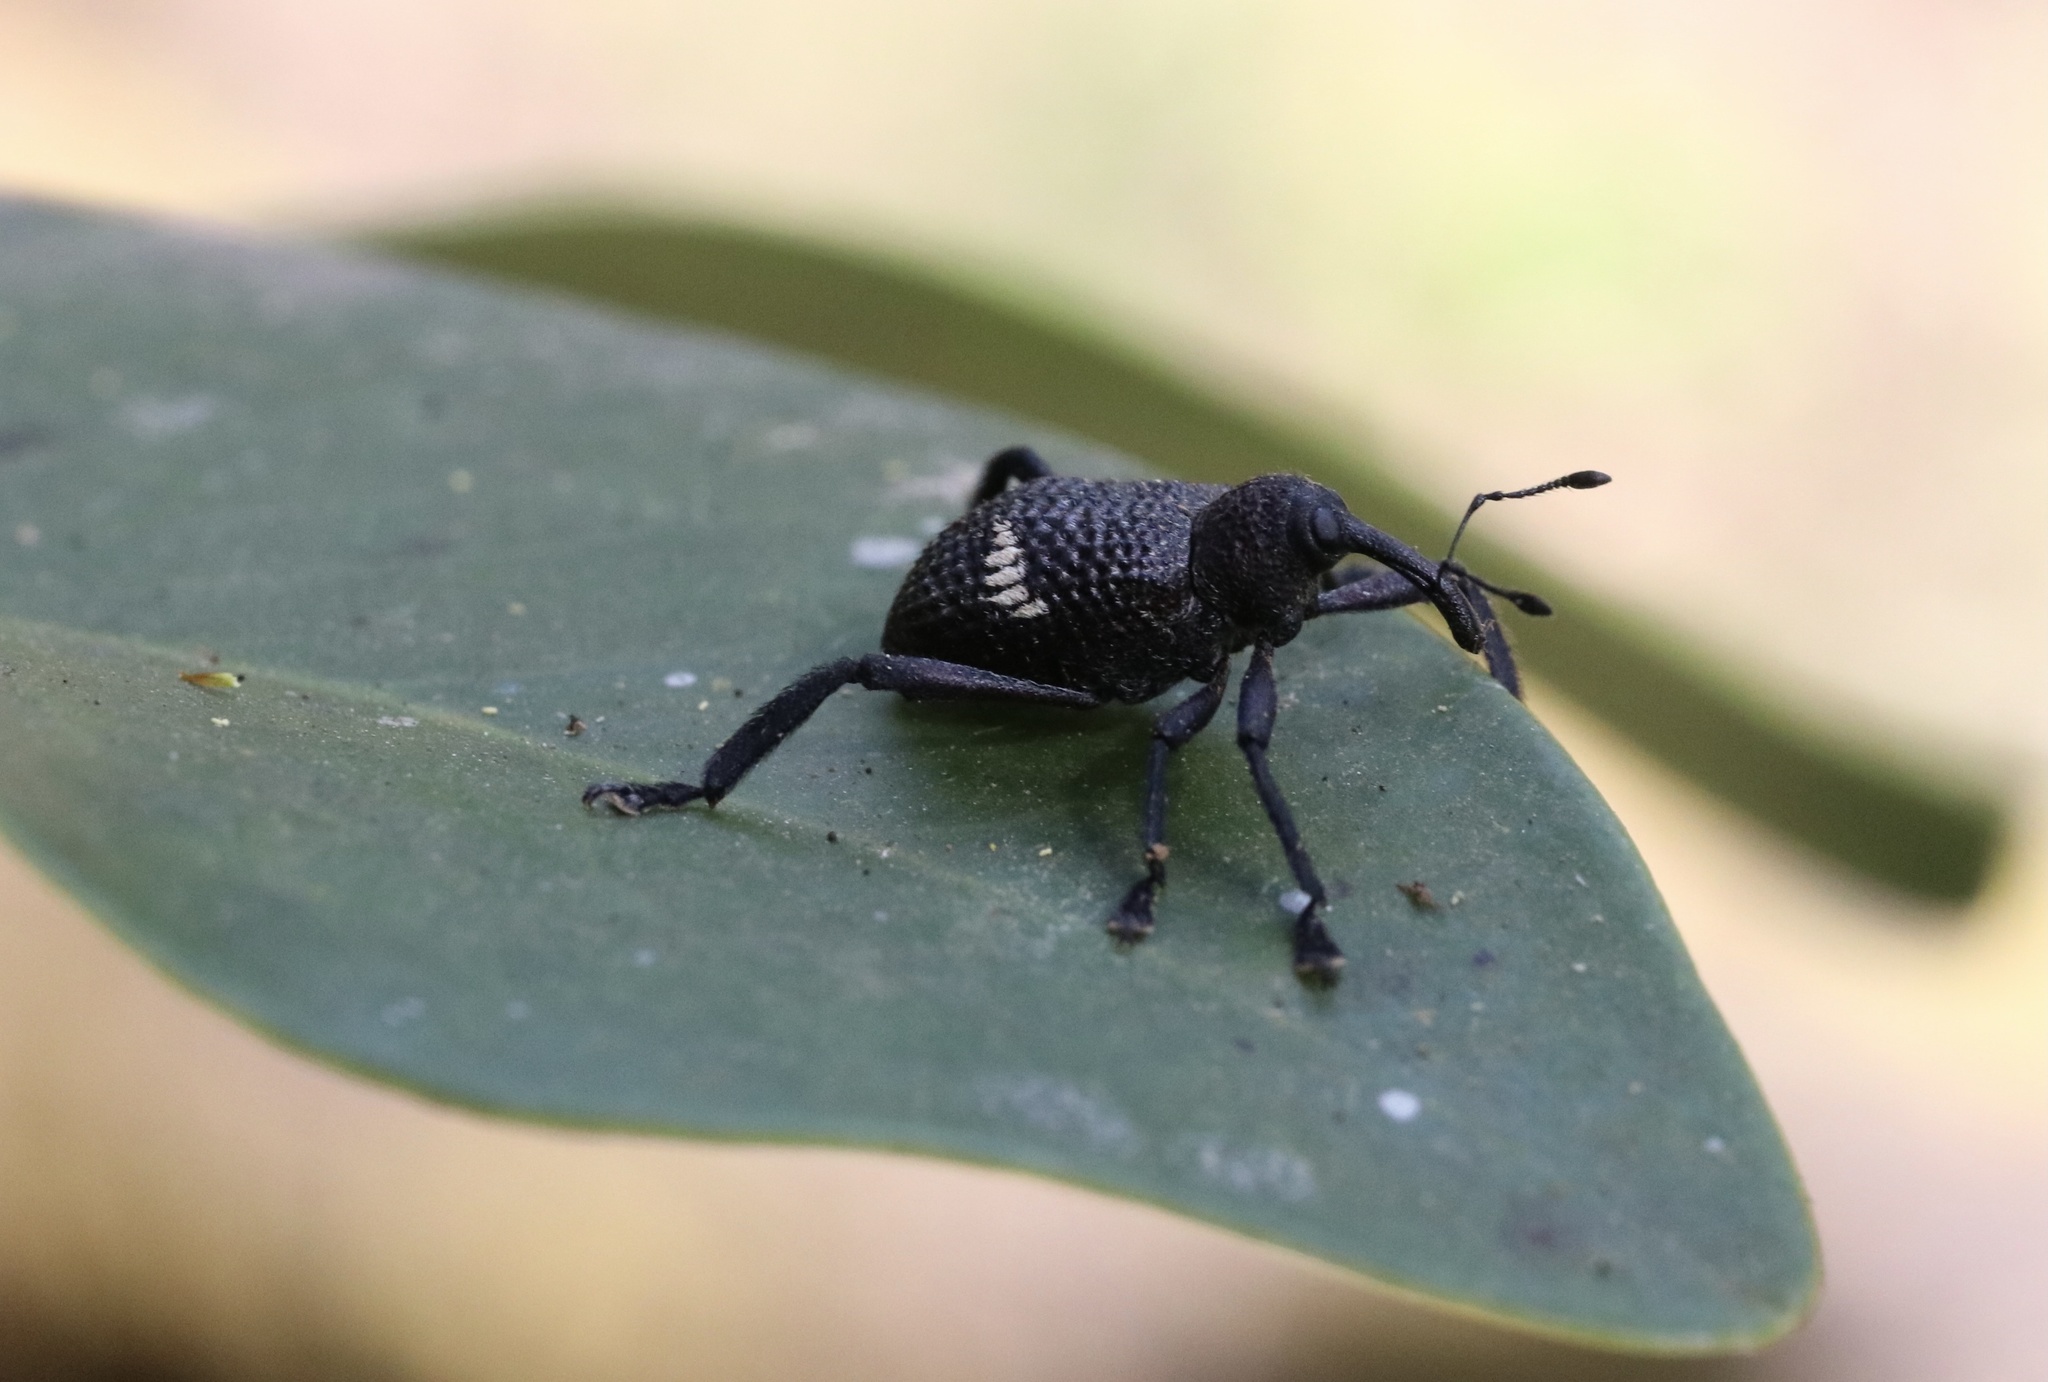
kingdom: Animalia
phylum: Arthropoda
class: Insecta
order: Coleoptera
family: Curculionidae
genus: Tartarisus
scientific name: Tartarisus
